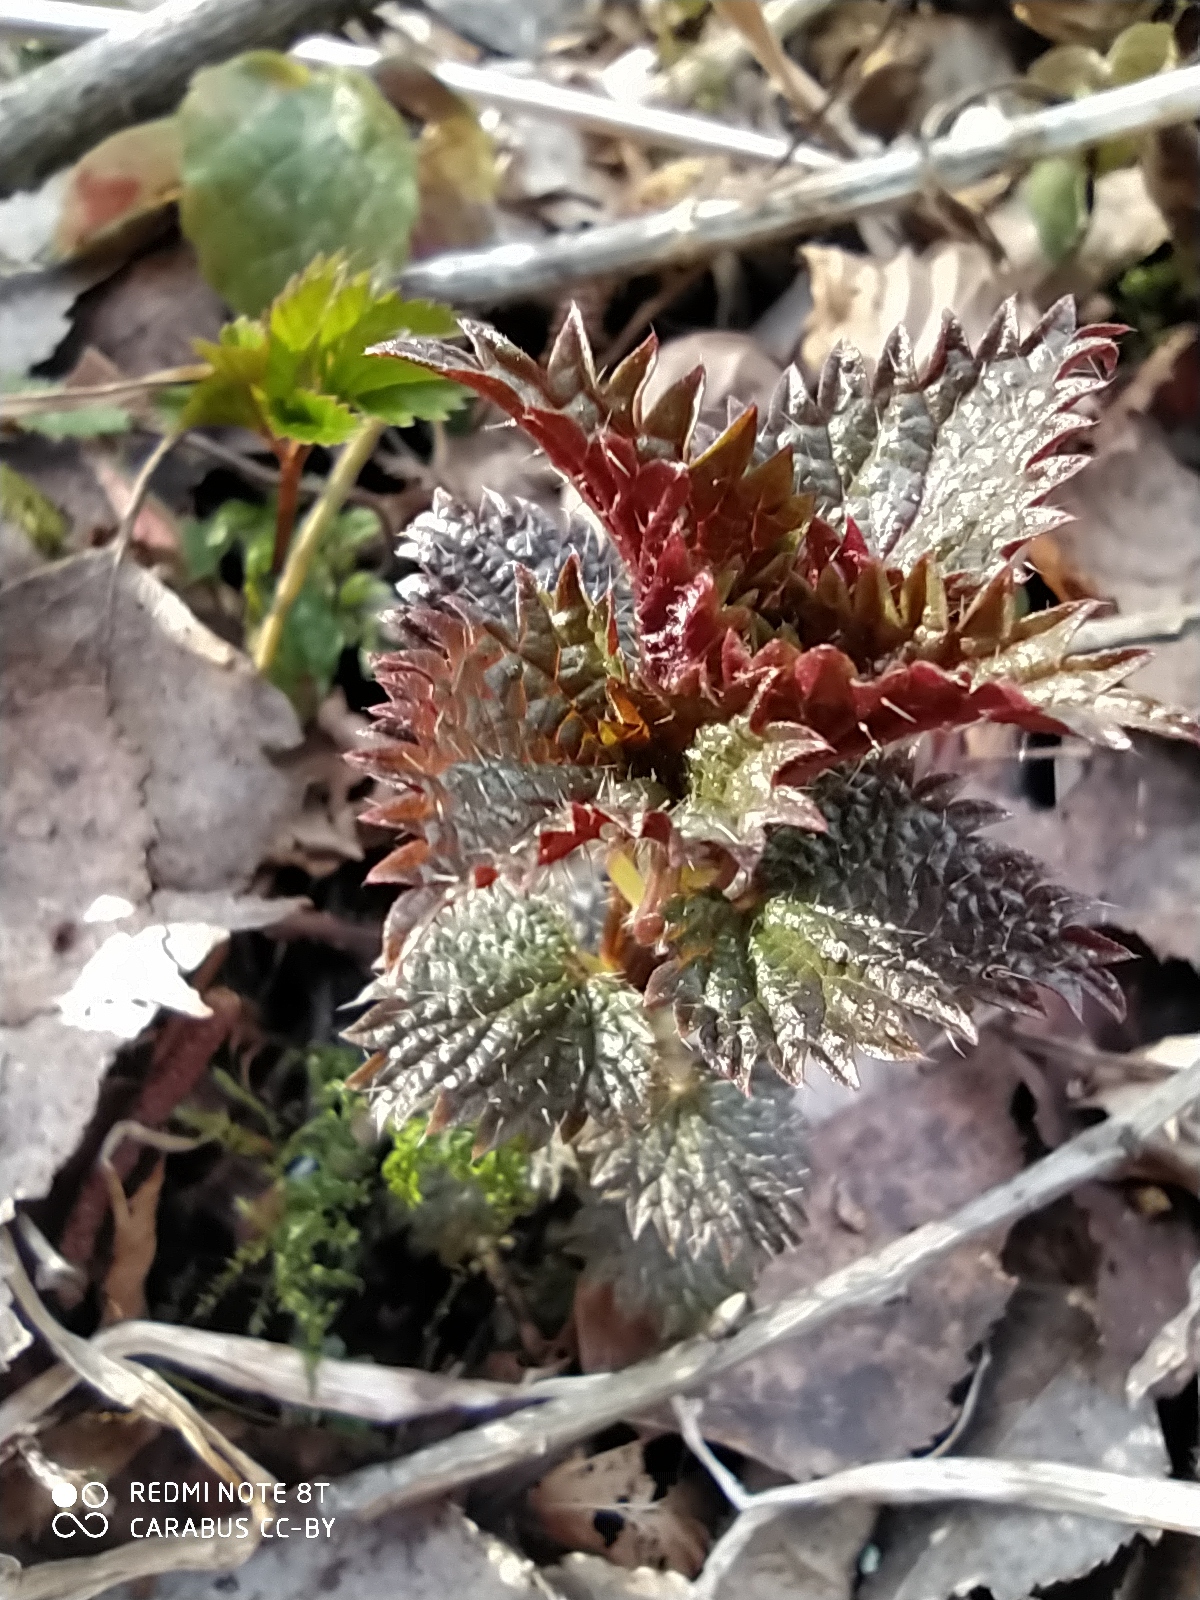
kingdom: Plantae
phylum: Tracheophyta
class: Magnoliopsida
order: Rosales
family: Urticaceae
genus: Urtica
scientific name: Urtica dioica
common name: Common nettle
